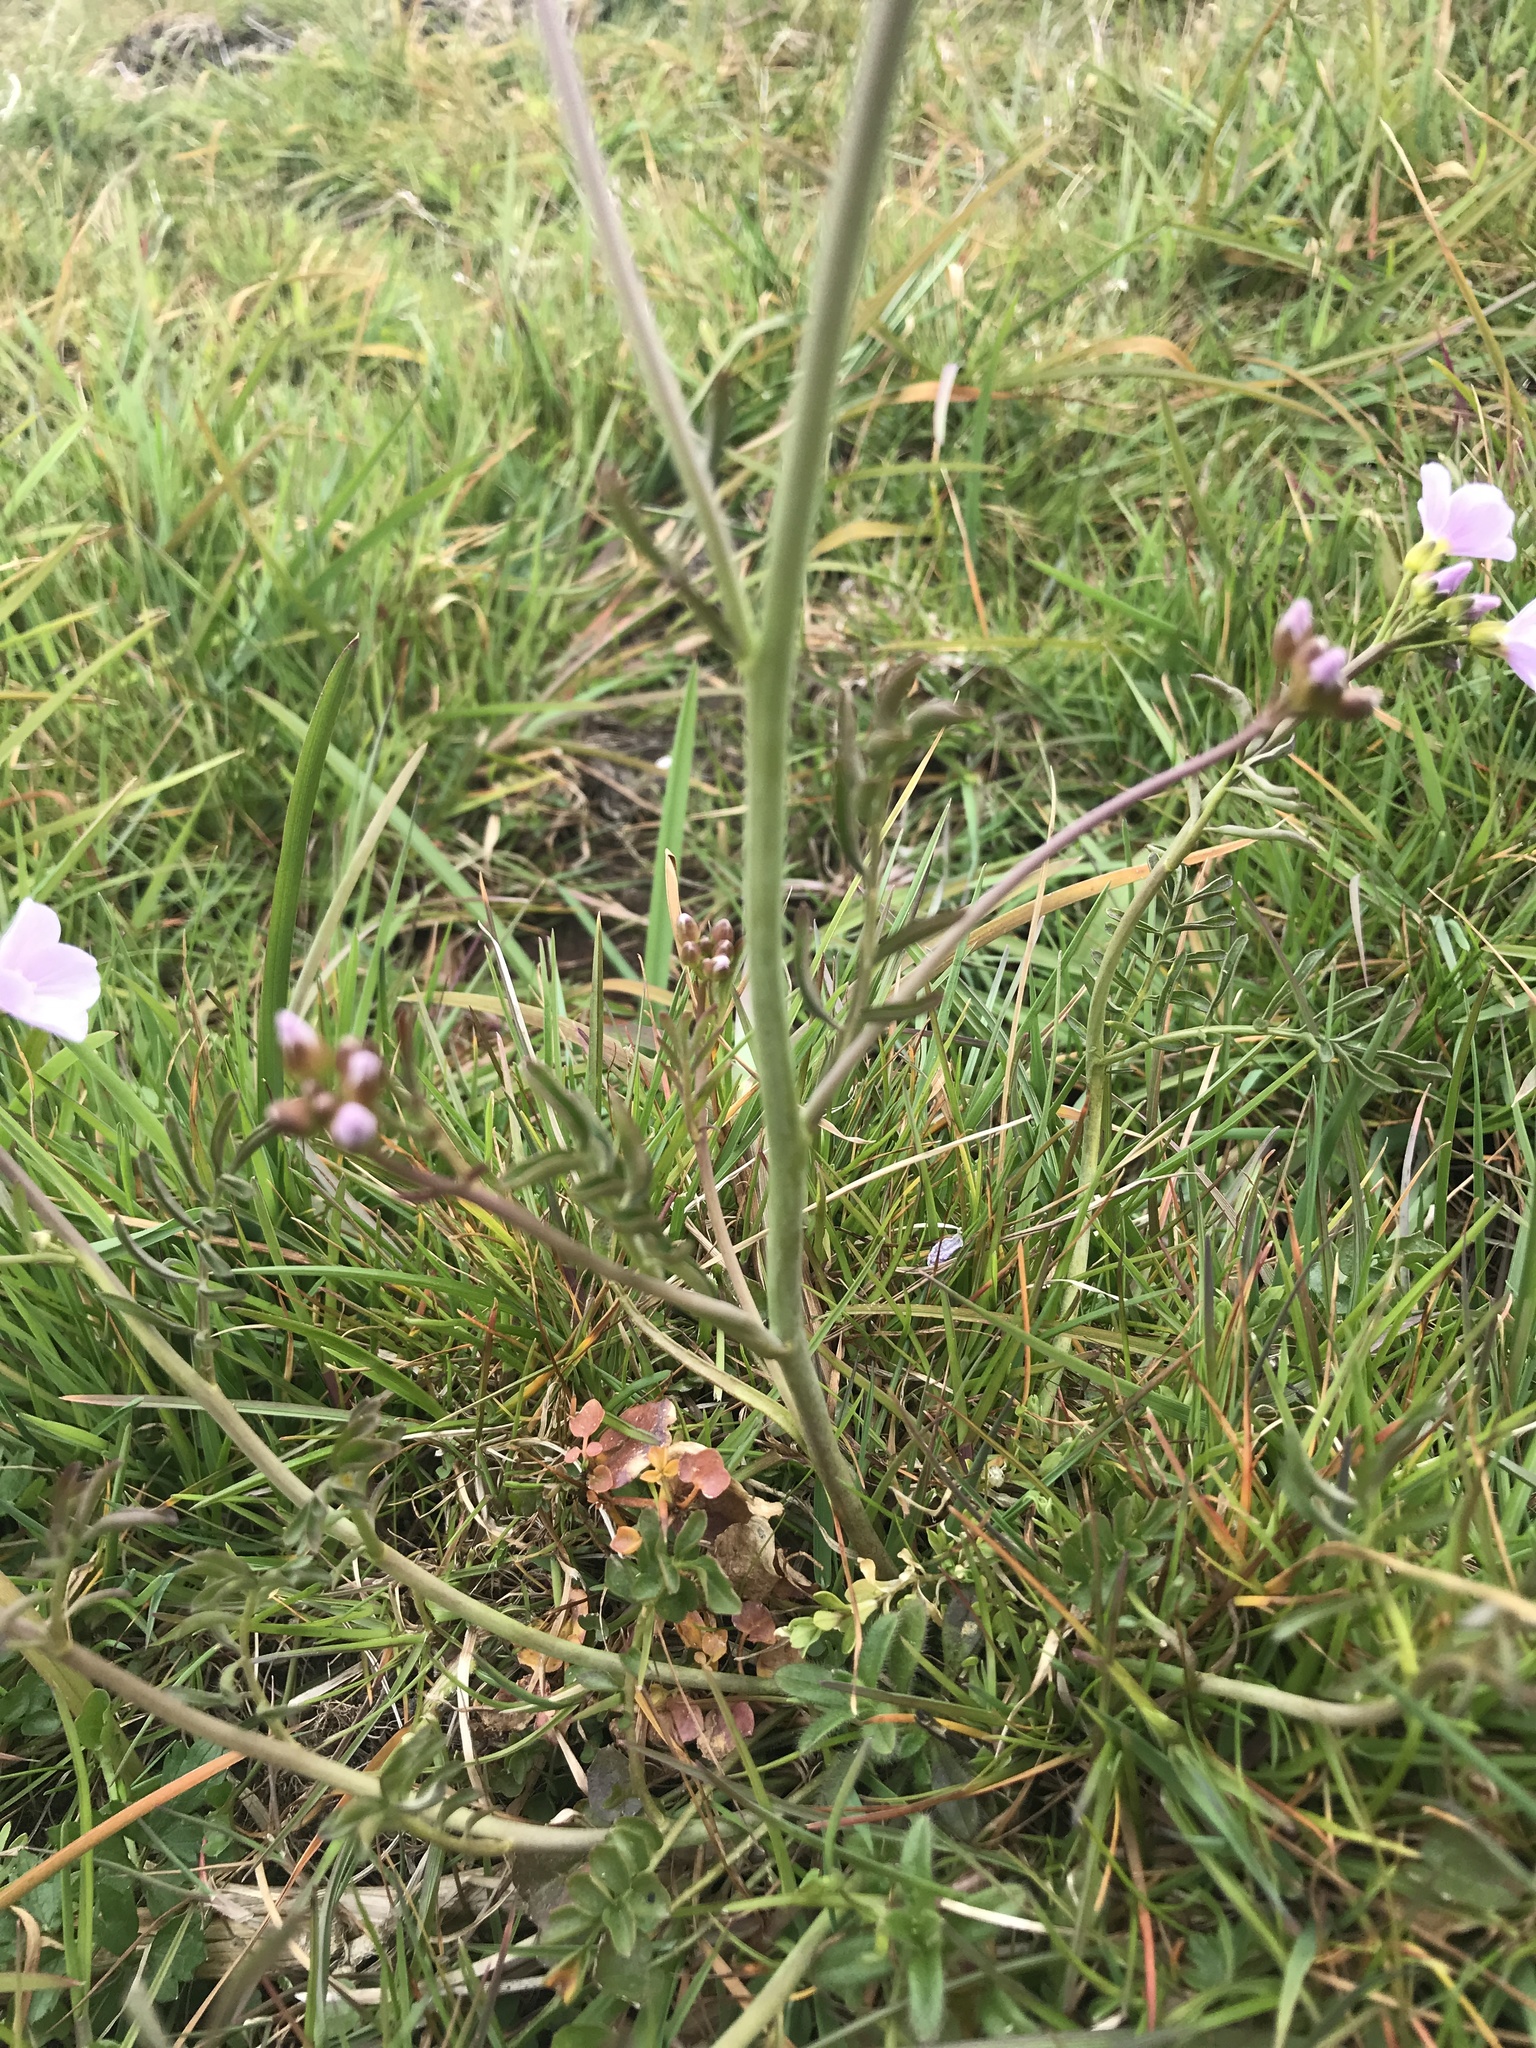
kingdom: Plantae
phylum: Tracheophyta
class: Magnoliopsida
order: Brassicales
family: Brassicaceae
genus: Cardamine
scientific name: Cardamine pratensis
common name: Cuckoo flower
